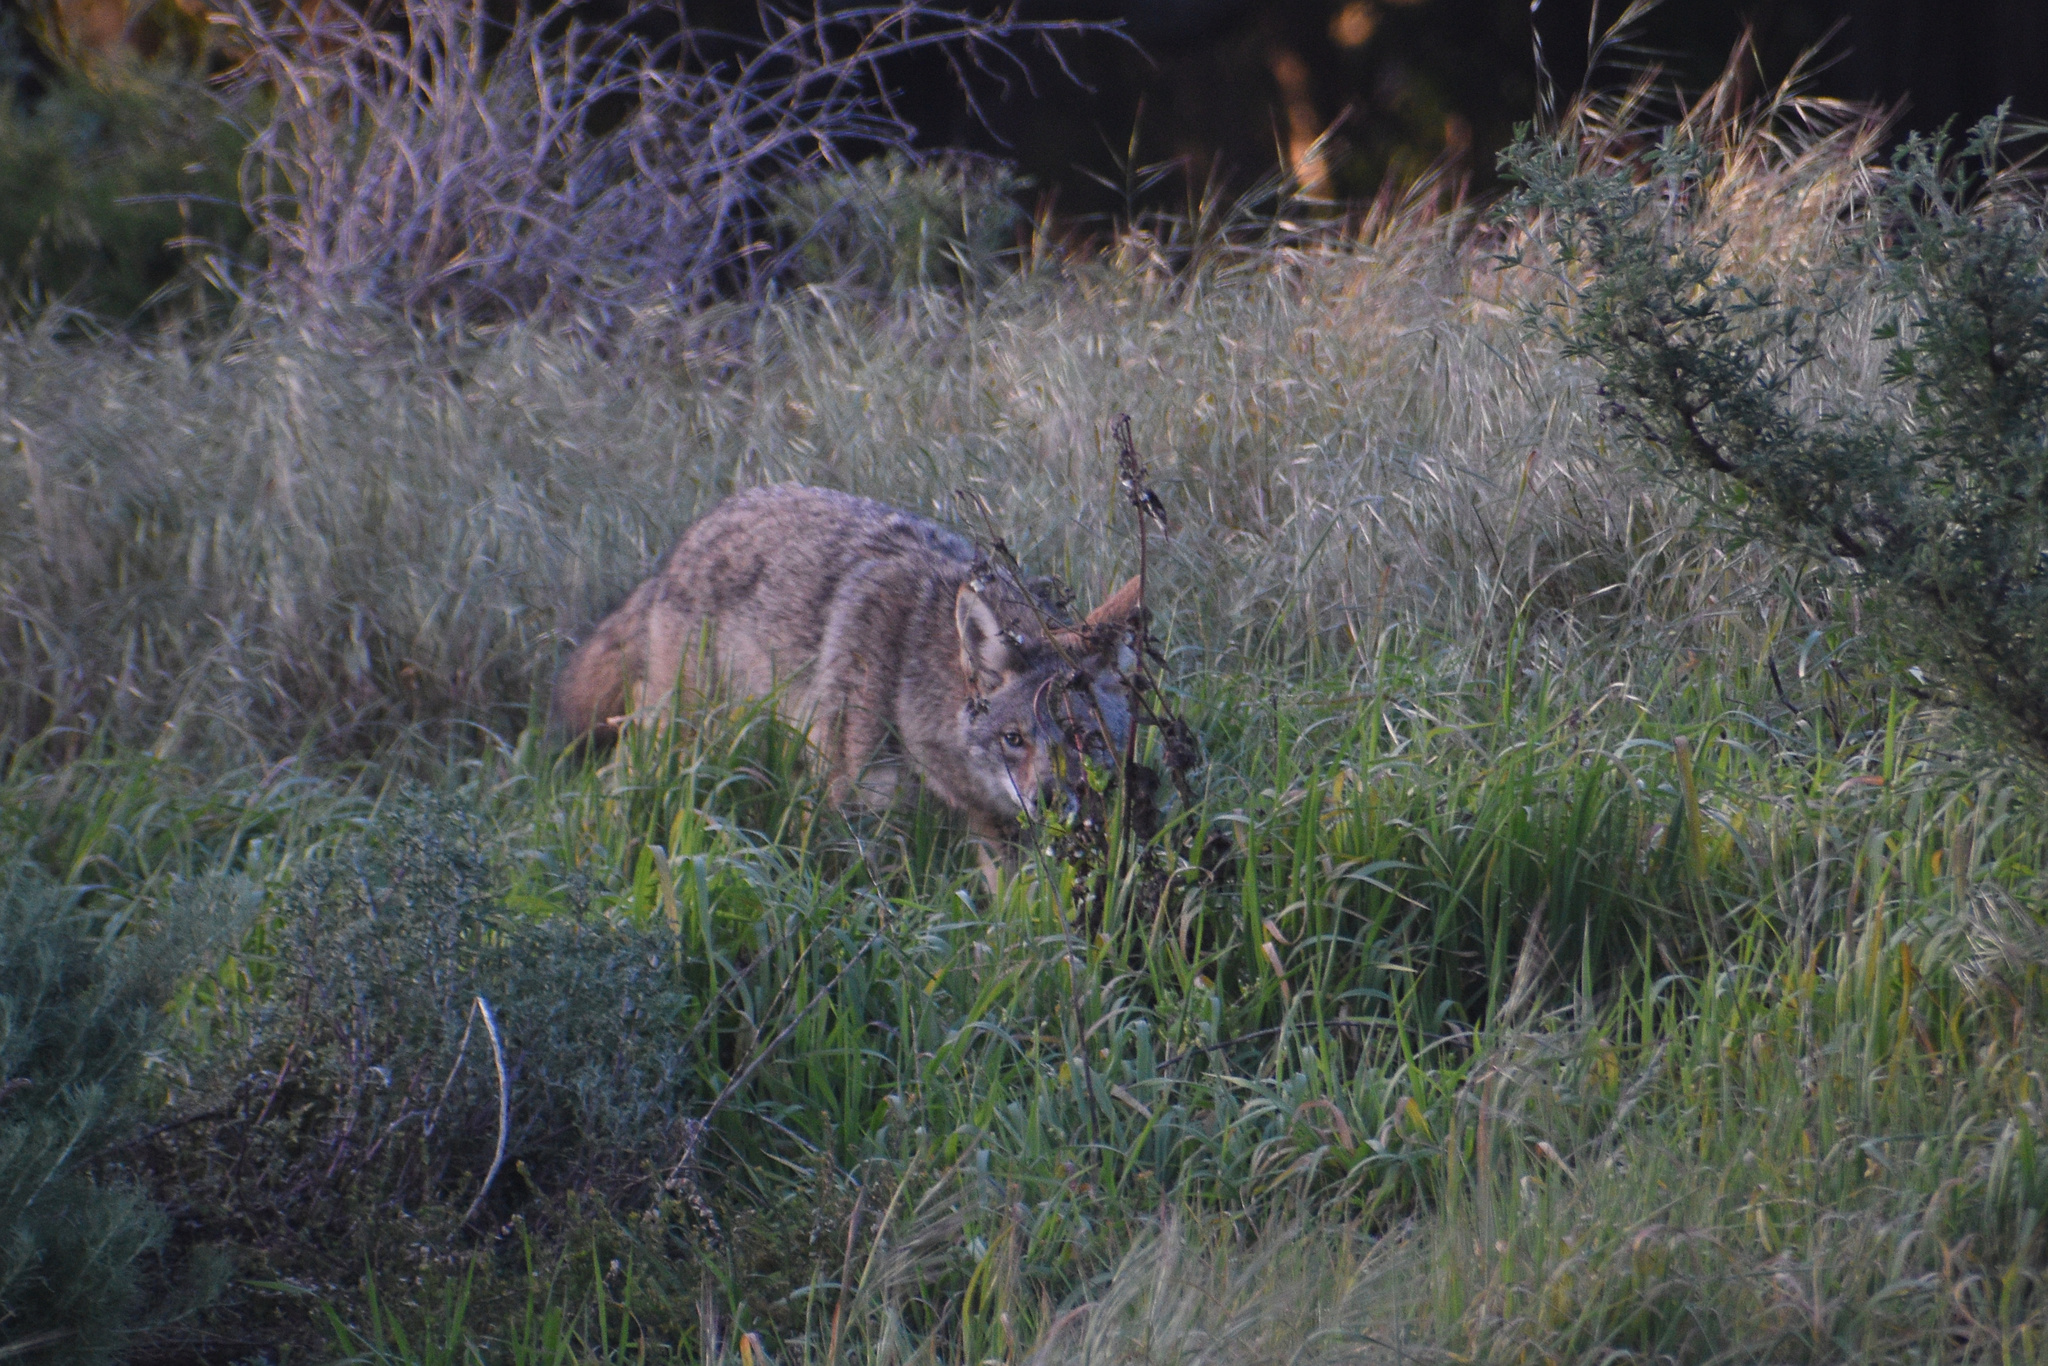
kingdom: Animalia
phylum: Chordata
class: Mammalia
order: Carnivora
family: Canidae
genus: Canis
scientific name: Canis latrans
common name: Coyote
